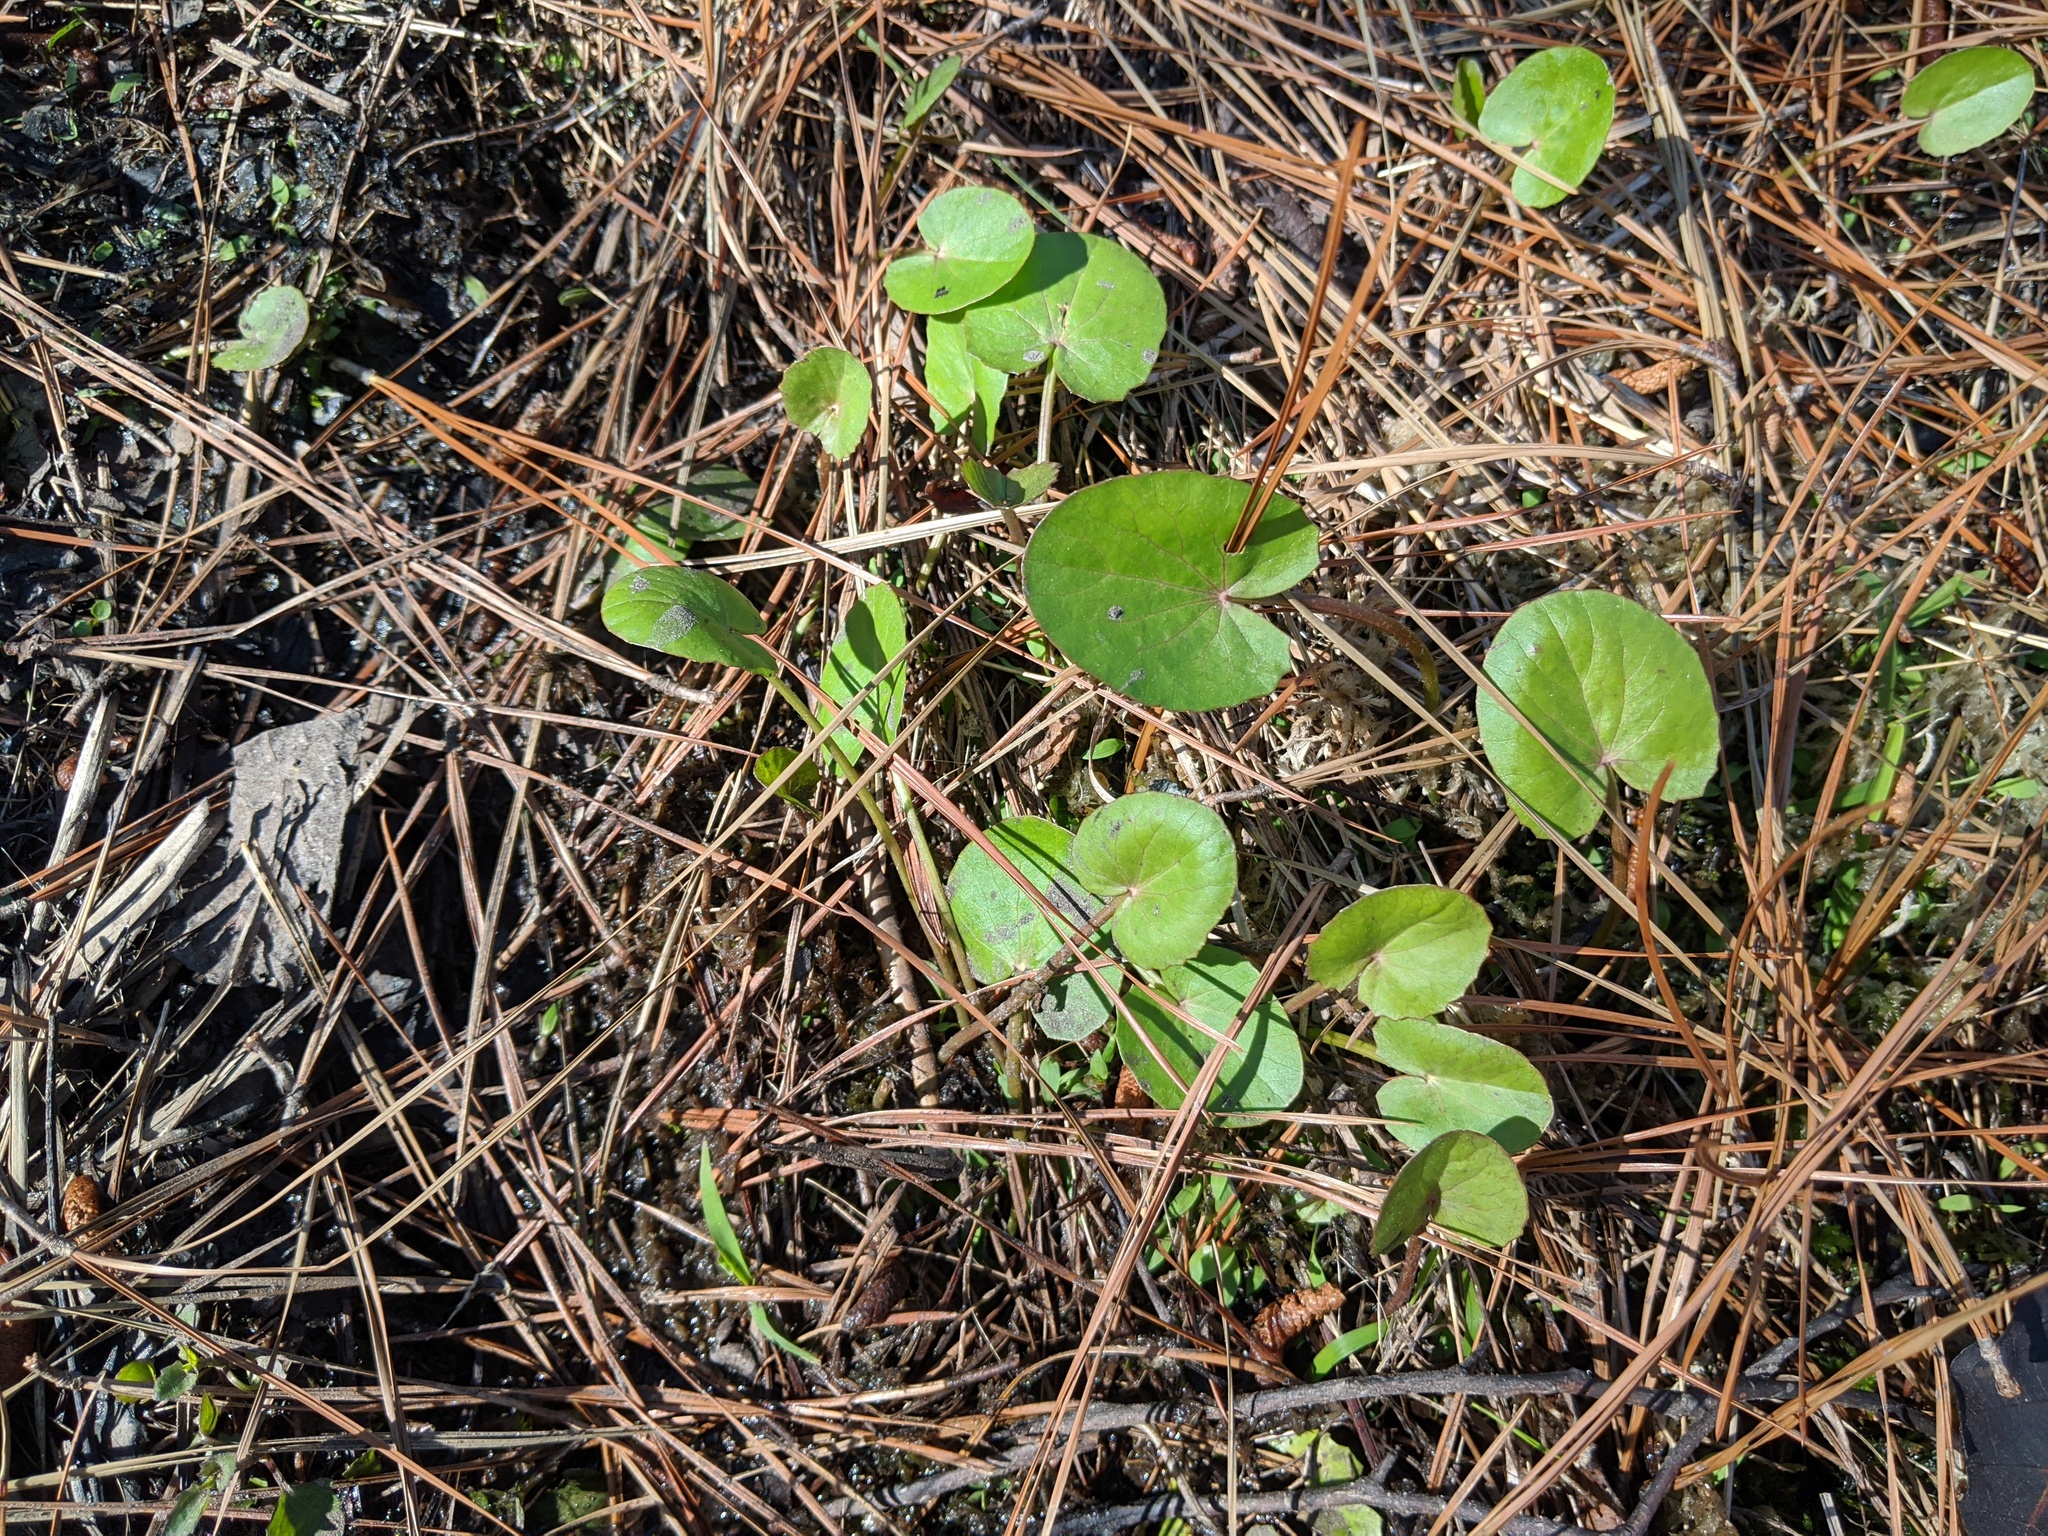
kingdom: Plantae
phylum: Tracheophyta
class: Magnoliopsida
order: Apiales
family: Apiaceae
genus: Centella
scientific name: Centella asiatica
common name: Spadeleaf
